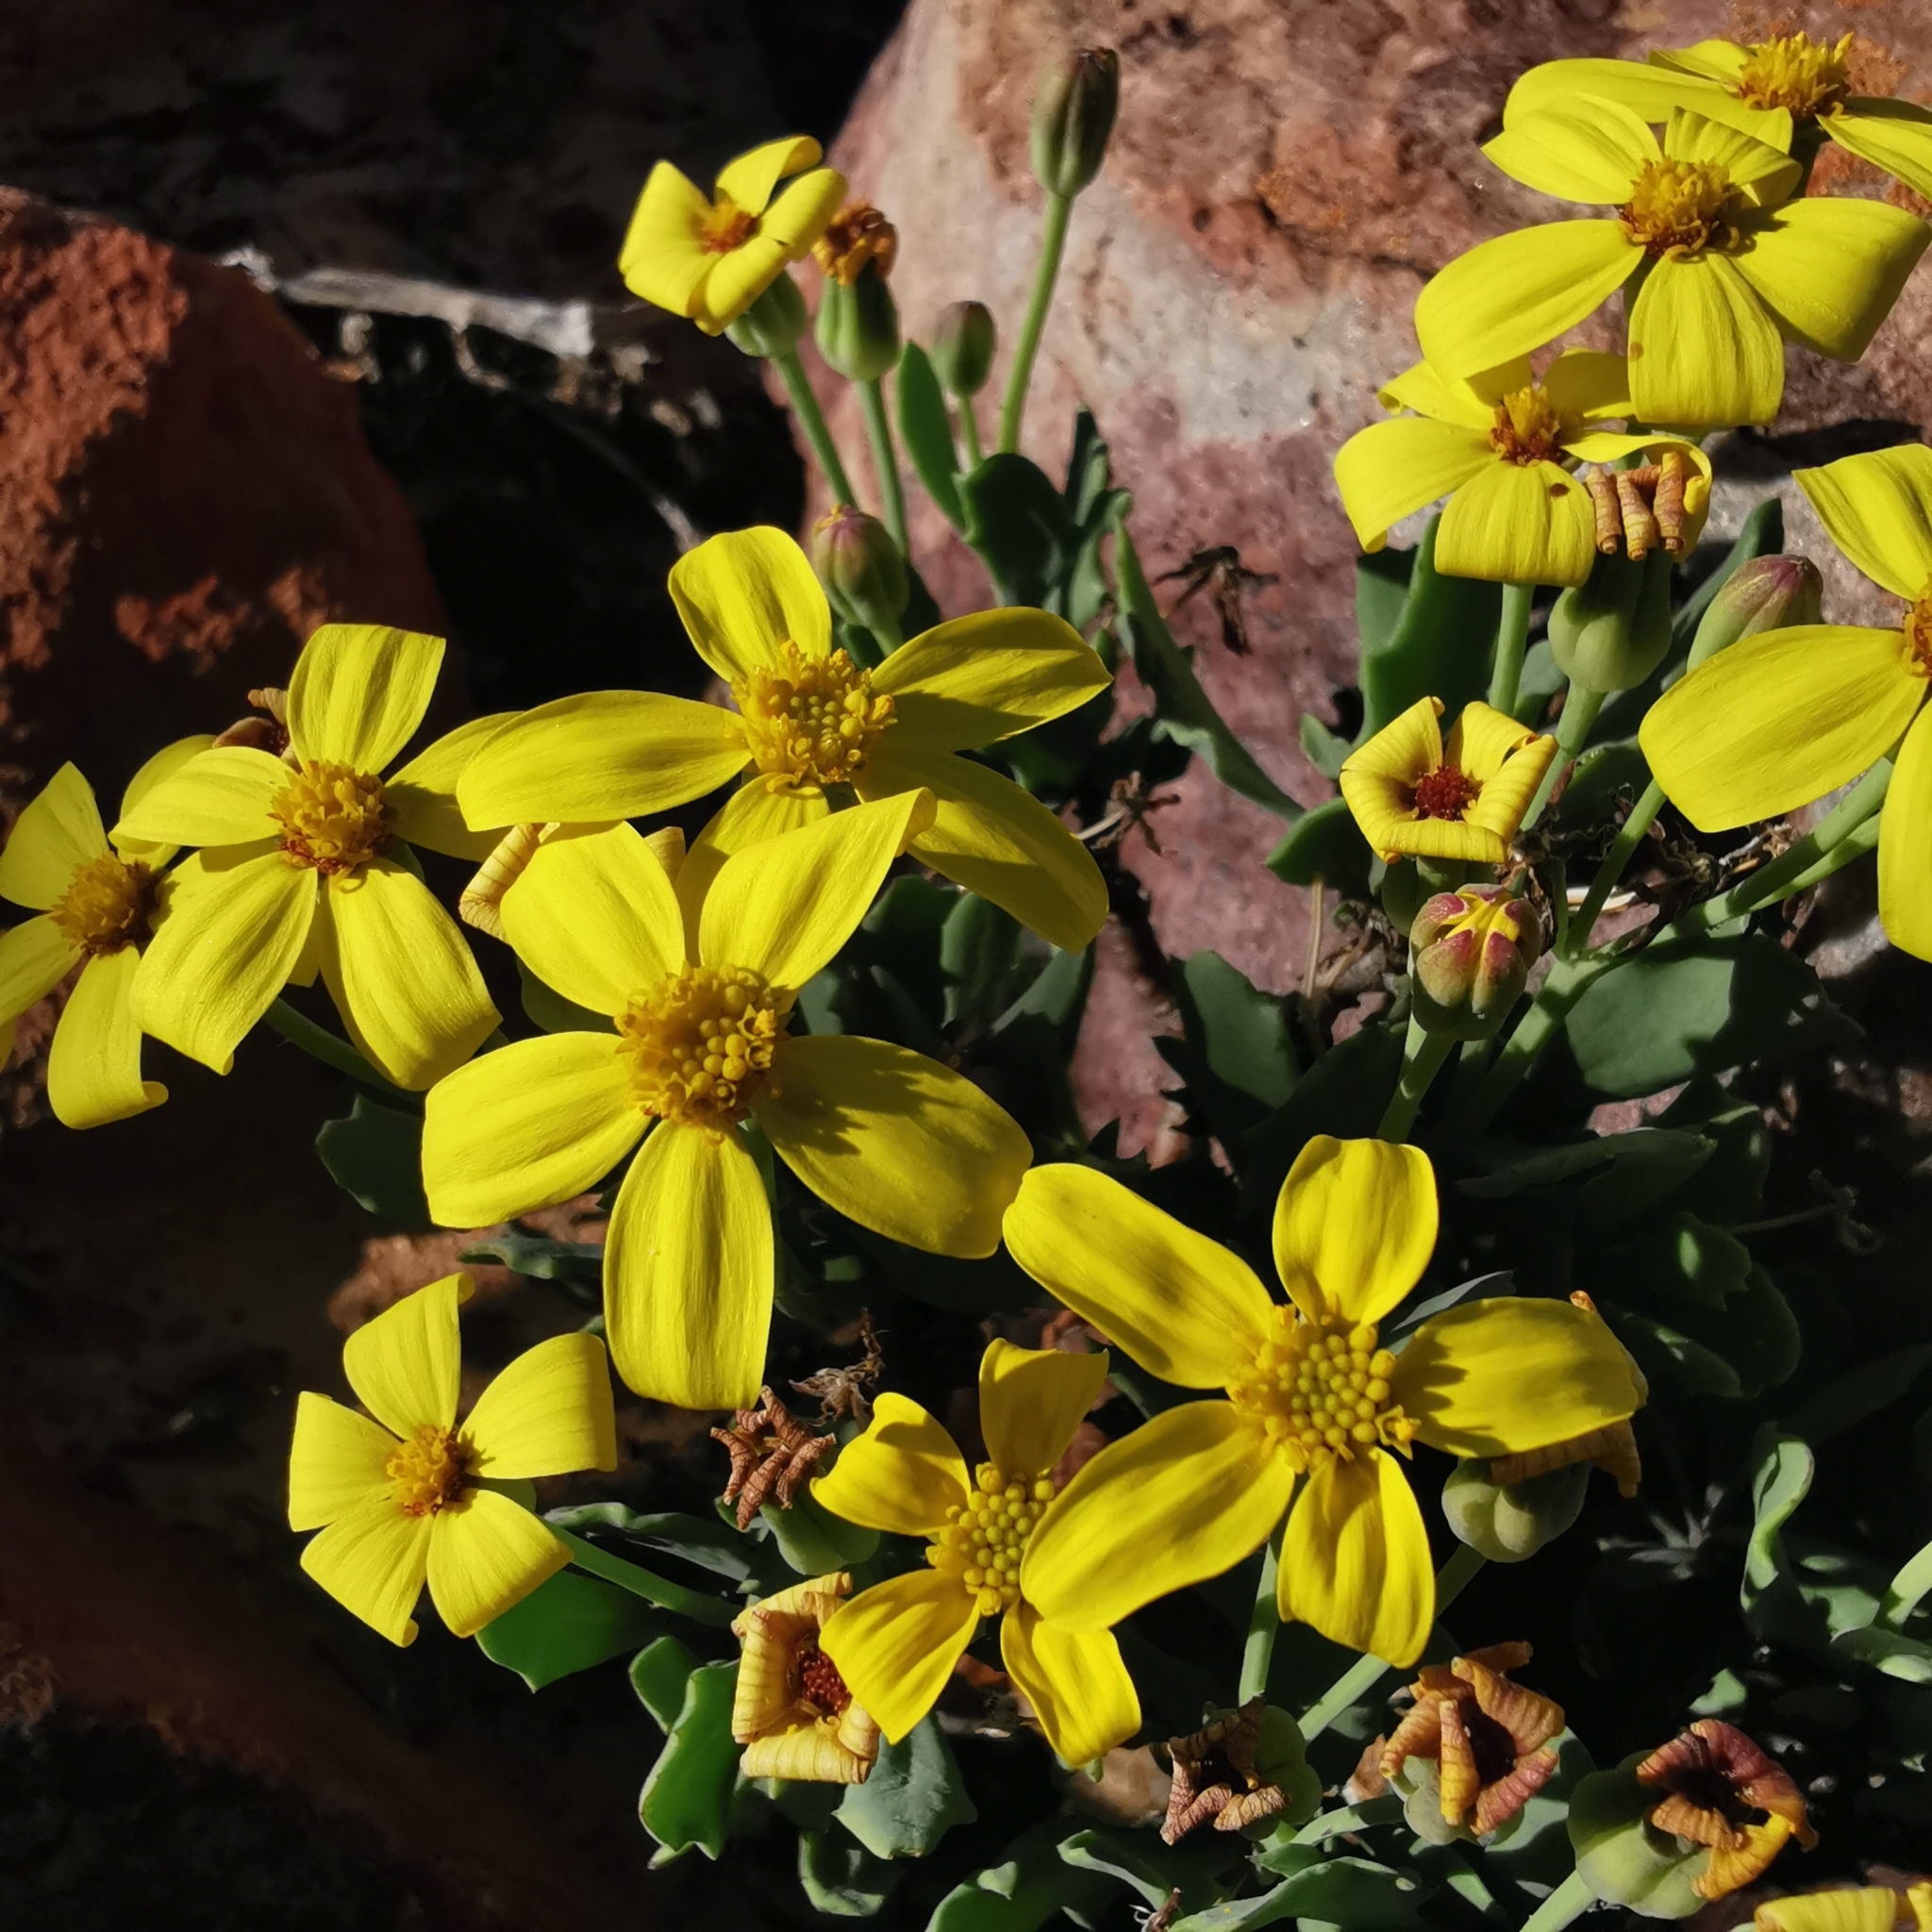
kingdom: Plantae
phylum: Tracheophyta
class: Magnoliopsida
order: Asterales
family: Asteraceae
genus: Othonna
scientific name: Othonna pumilio
